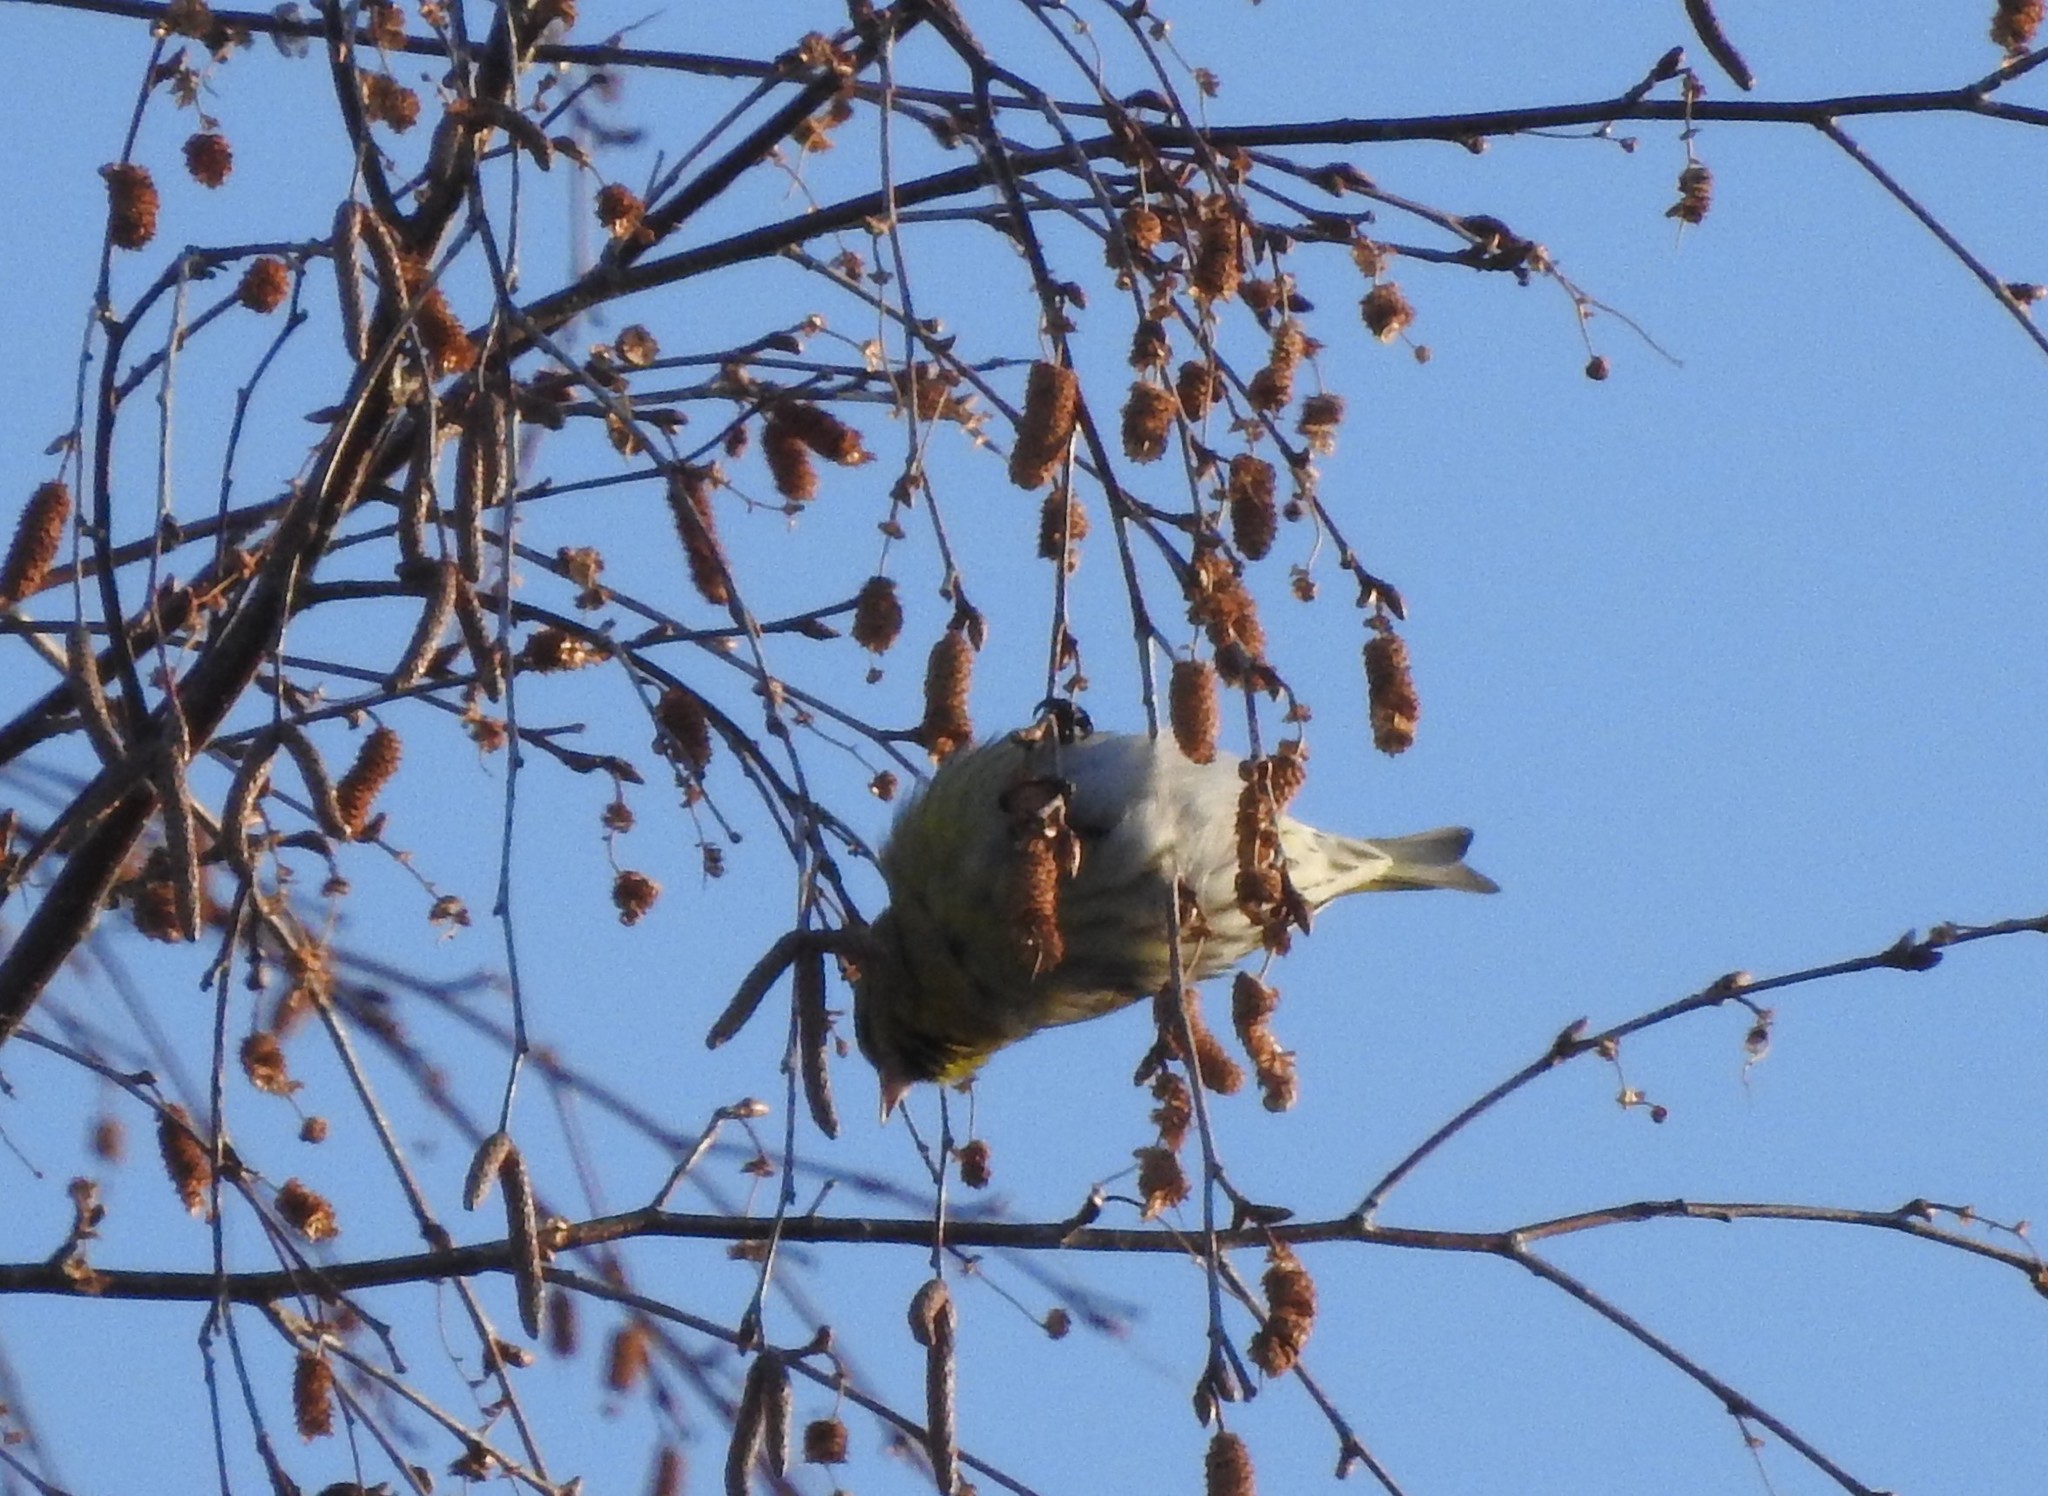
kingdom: Animalia
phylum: Chordata
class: Aves
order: Passeriformes
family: Fringillidae
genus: Spinus
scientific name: Spinus spinus
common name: Eurasian siskin
